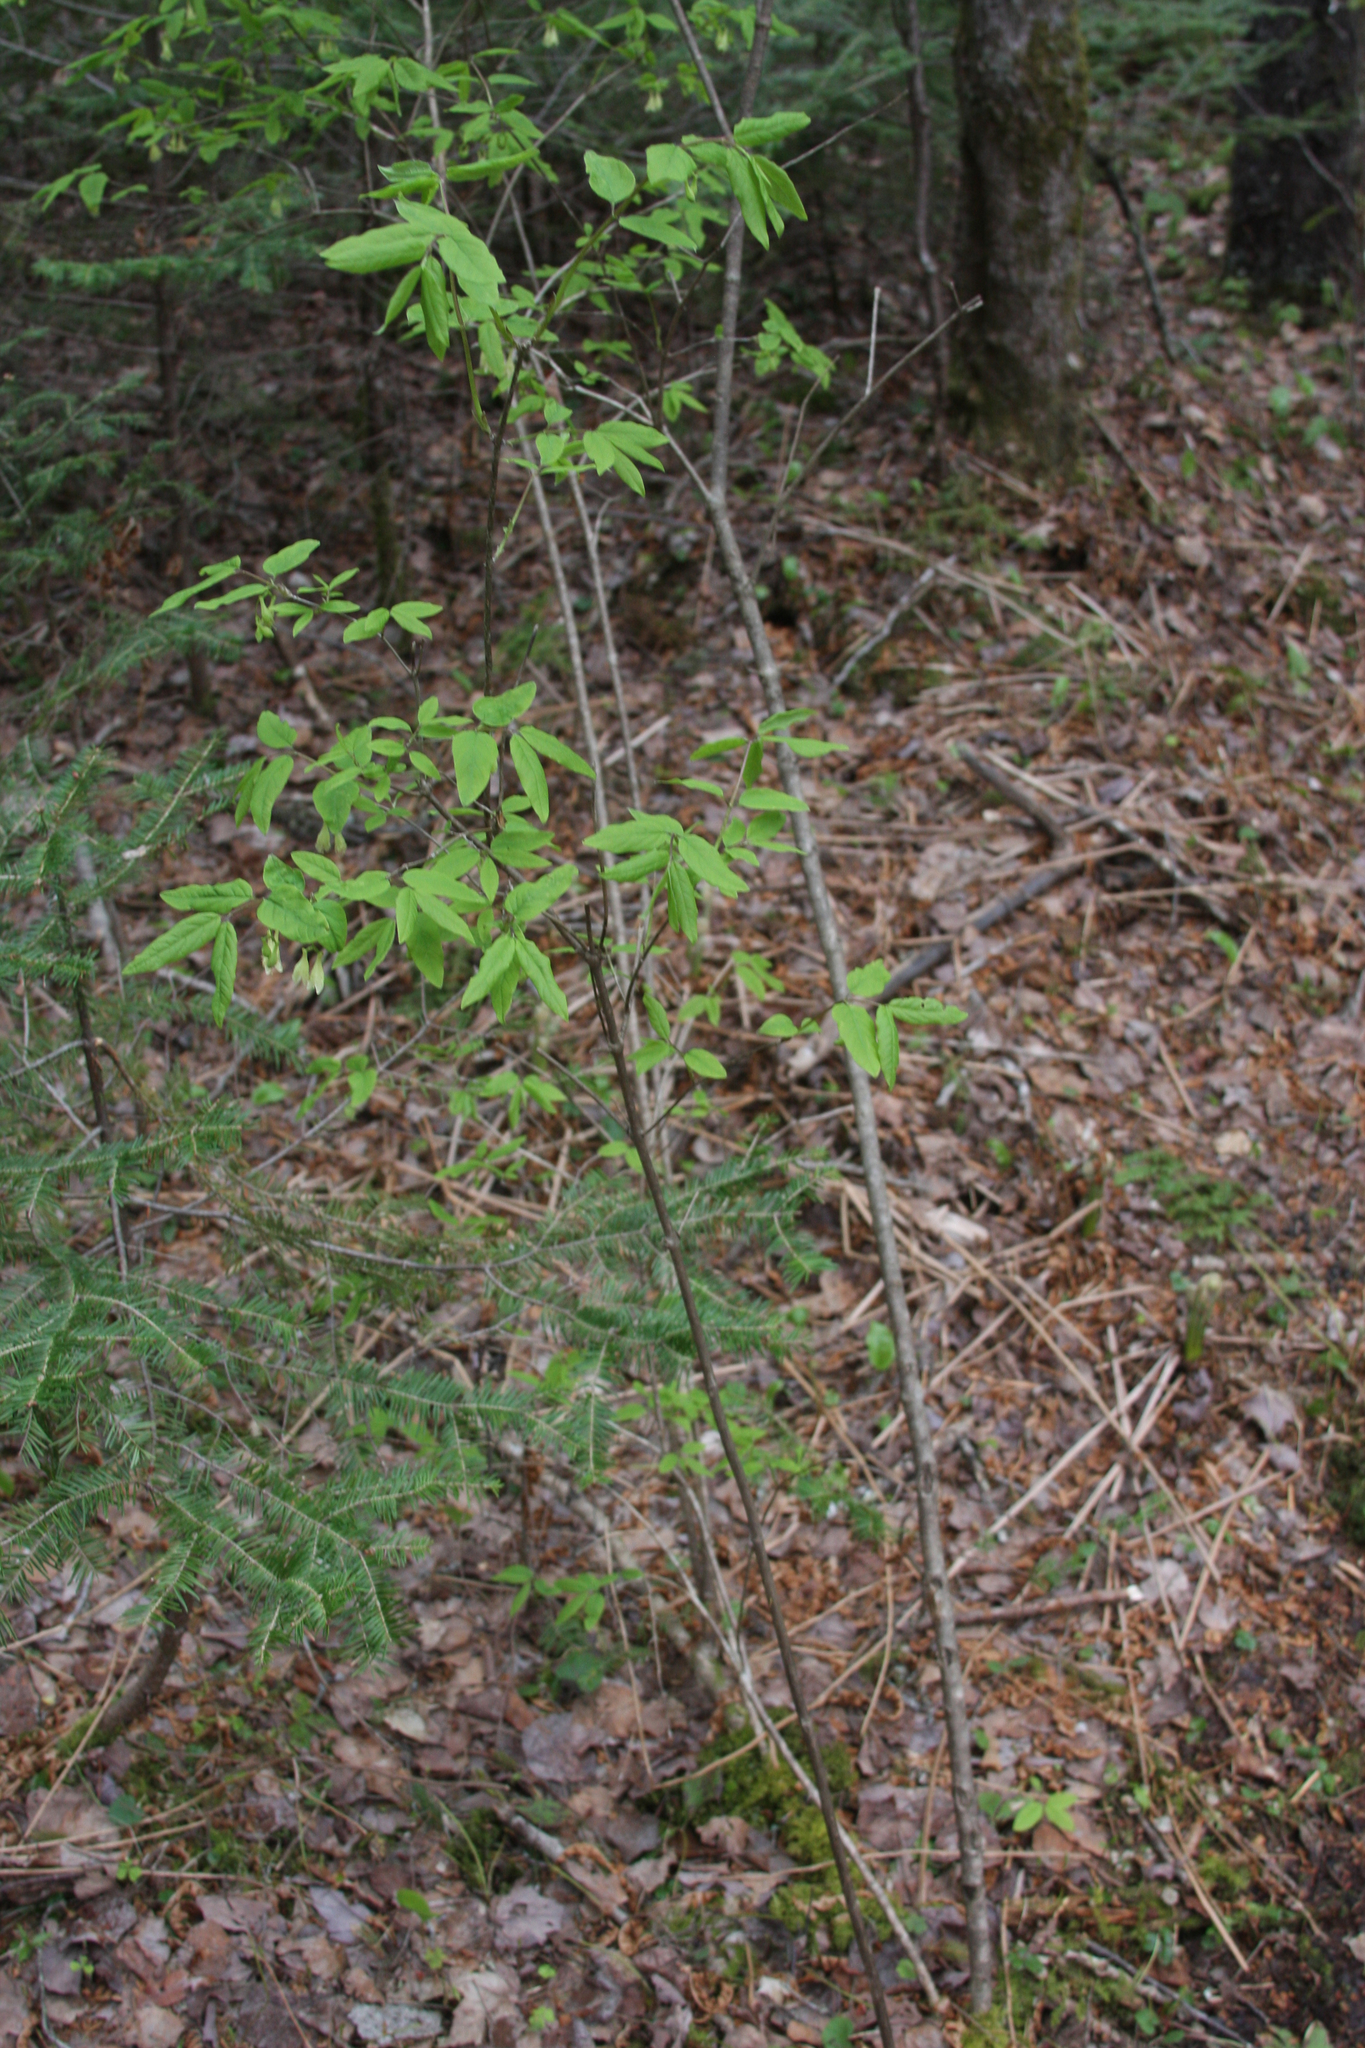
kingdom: Plantae
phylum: Tracheophyta
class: Magnoliopsida
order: Dipsacales
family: Caprifoliaceae
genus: Lonicera
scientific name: Lonicera canadensis
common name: American fly-honeysuckle
